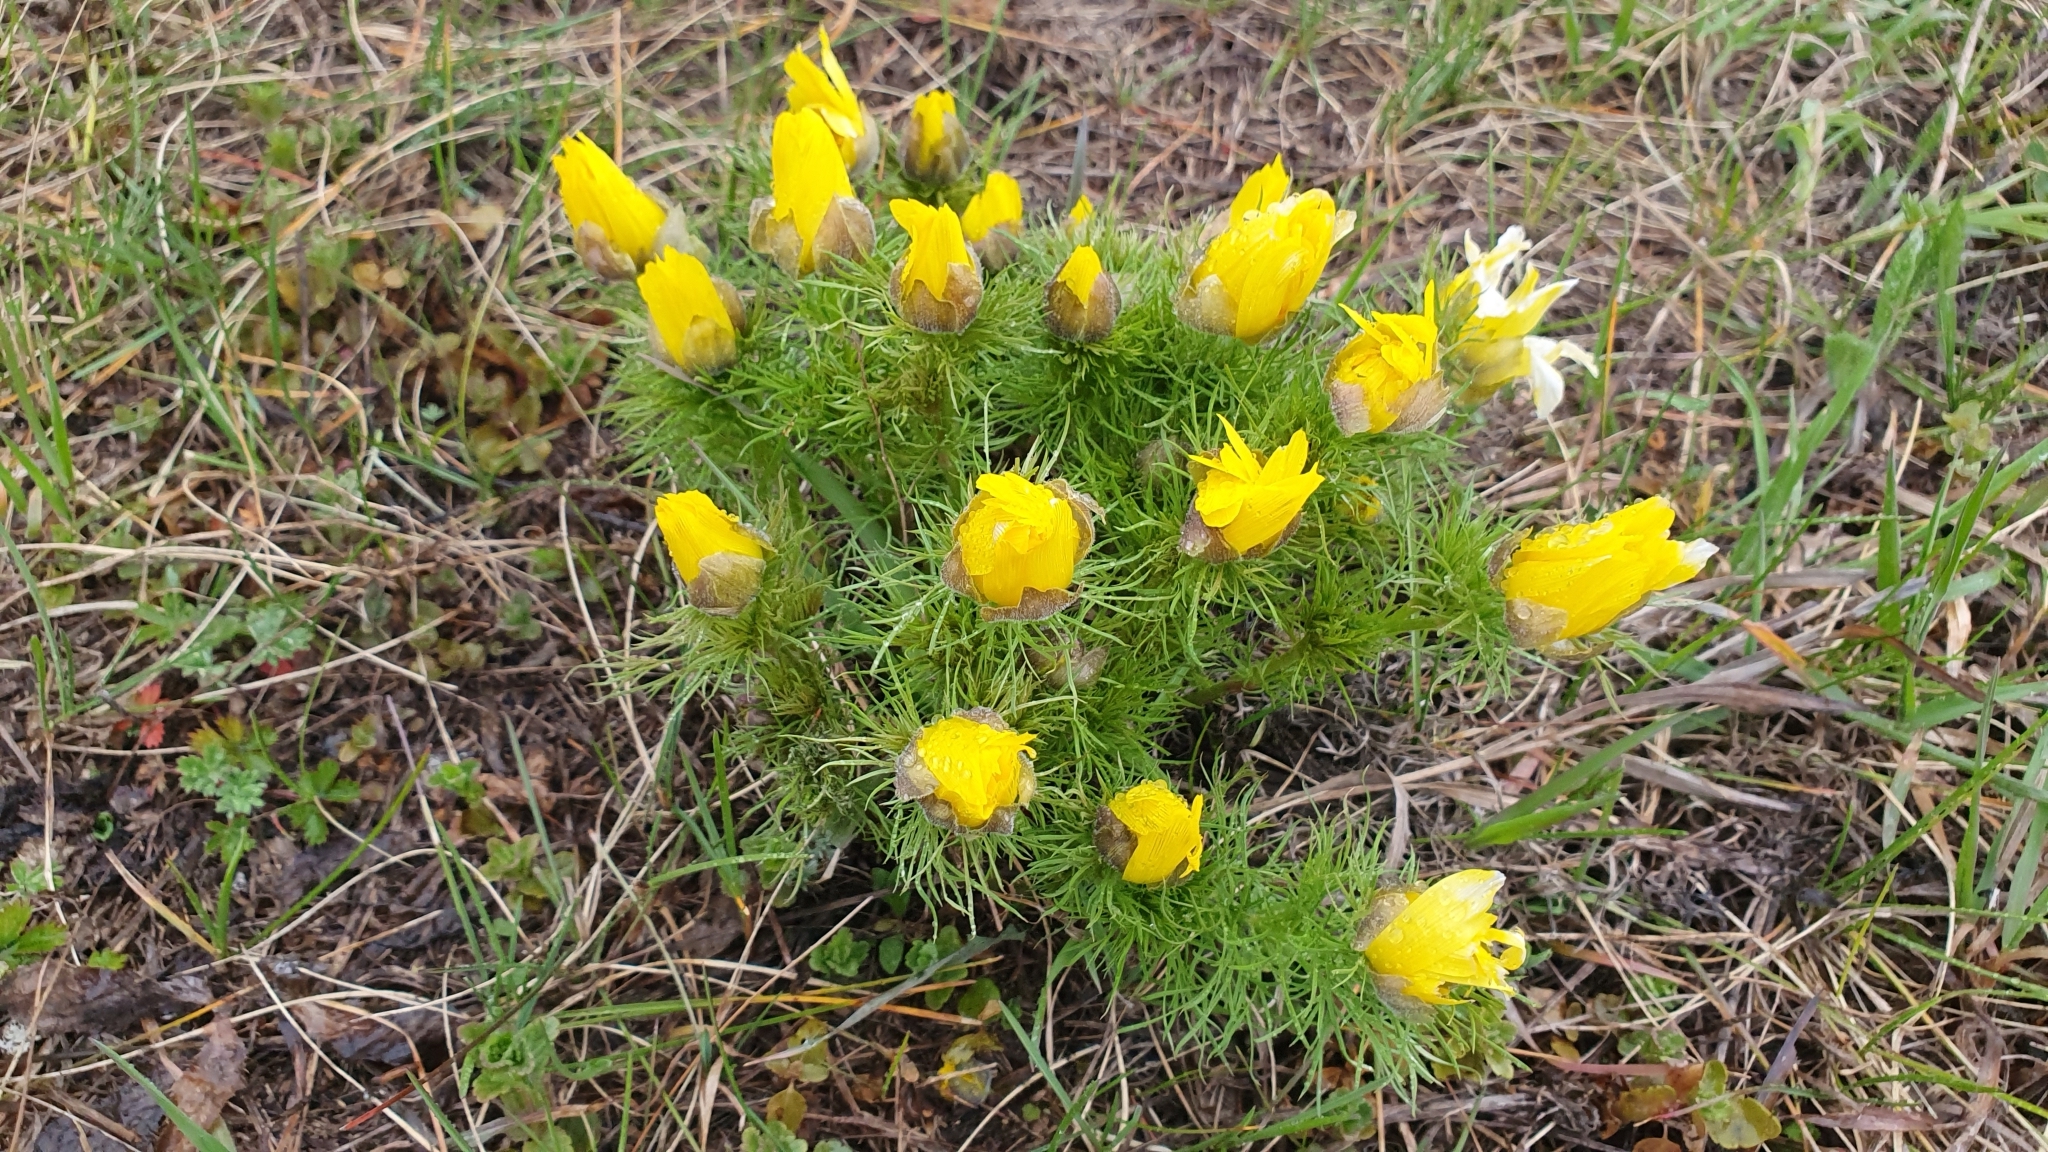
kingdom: Plantae
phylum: Tracheophyta
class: Magnoliopsida
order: Ranunculales
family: Ranunculaceae
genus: Adonis
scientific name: Adonis vernalis
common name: Yellow pheasants-eye
